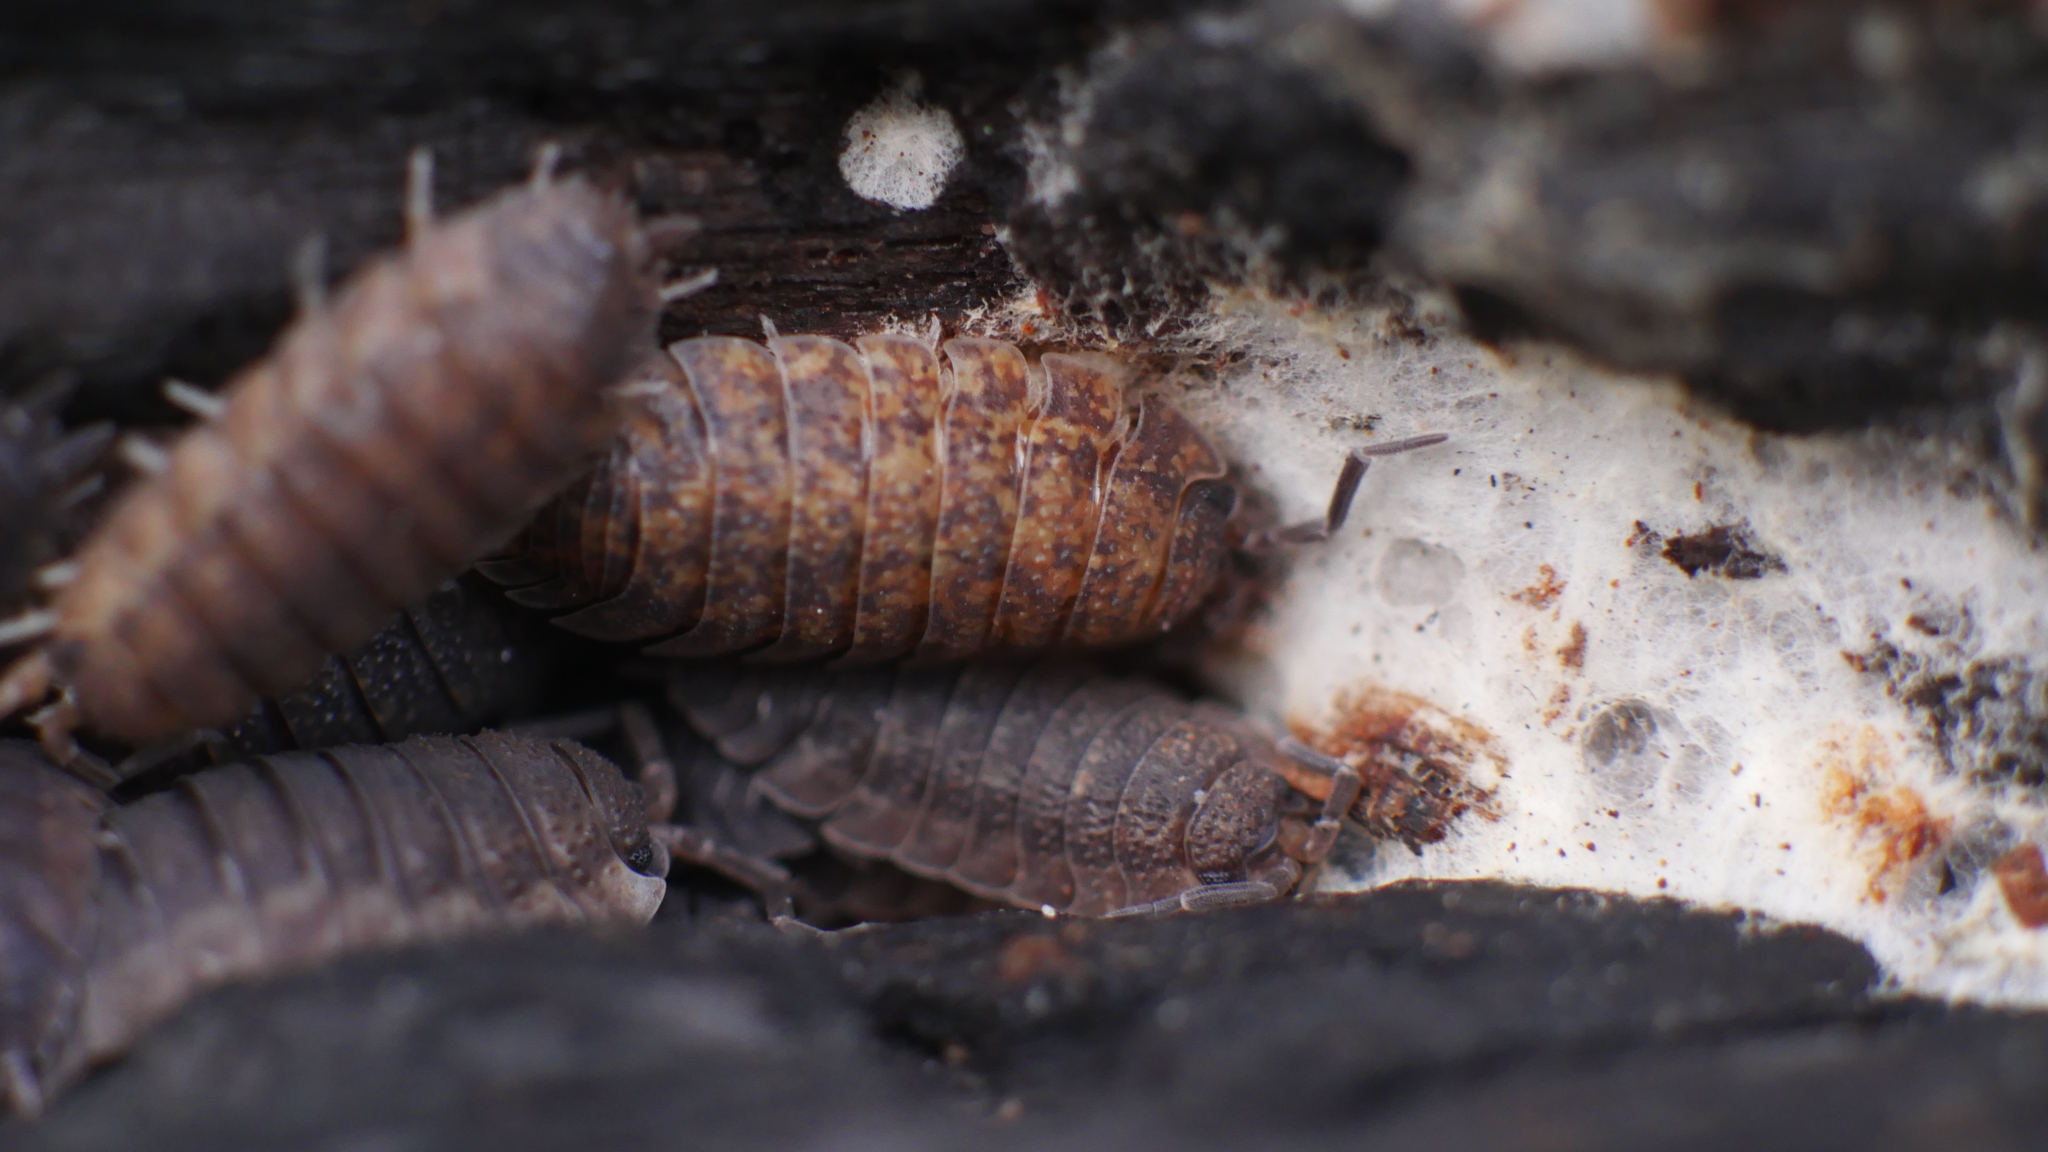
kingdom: Animalia
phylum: Arthropoda
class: Malacostraca
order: Isopoda
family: Porcellionidae
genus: Porcellio
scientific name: Porcellio scaber
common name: Common rough woodlouse
